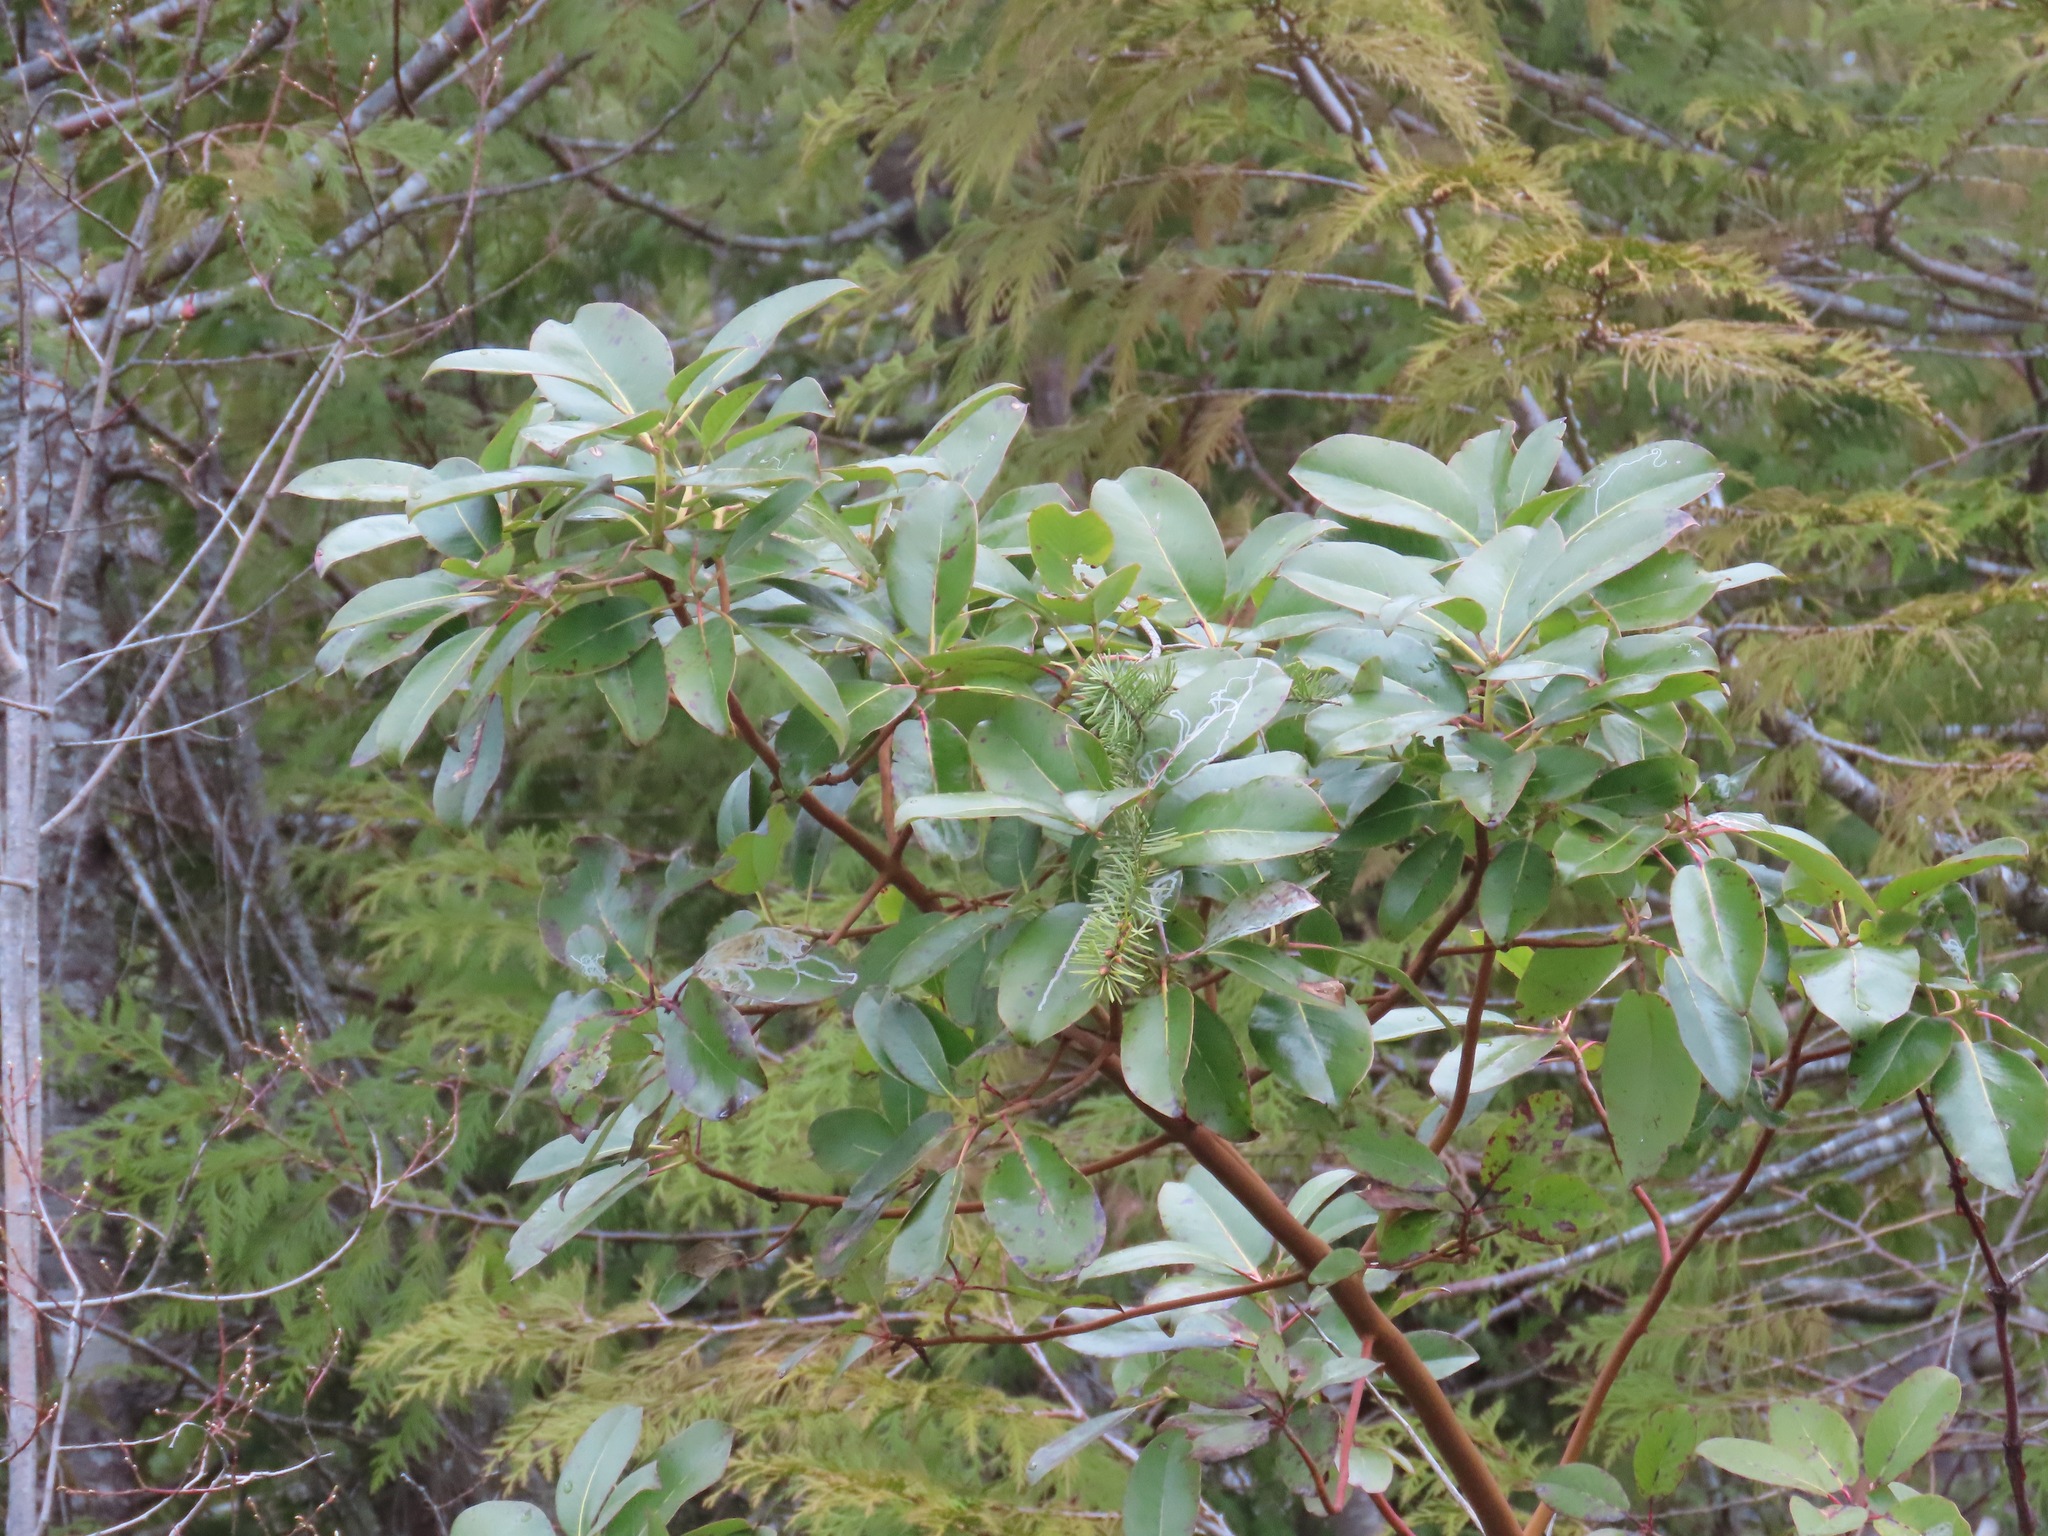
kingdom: Plantae
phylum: Tracheophyta
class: Magnoliopsida
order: Ericales
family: Ericaceae
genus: Arbutus
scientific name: Arbutus menziesii
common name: Pacific madrone
